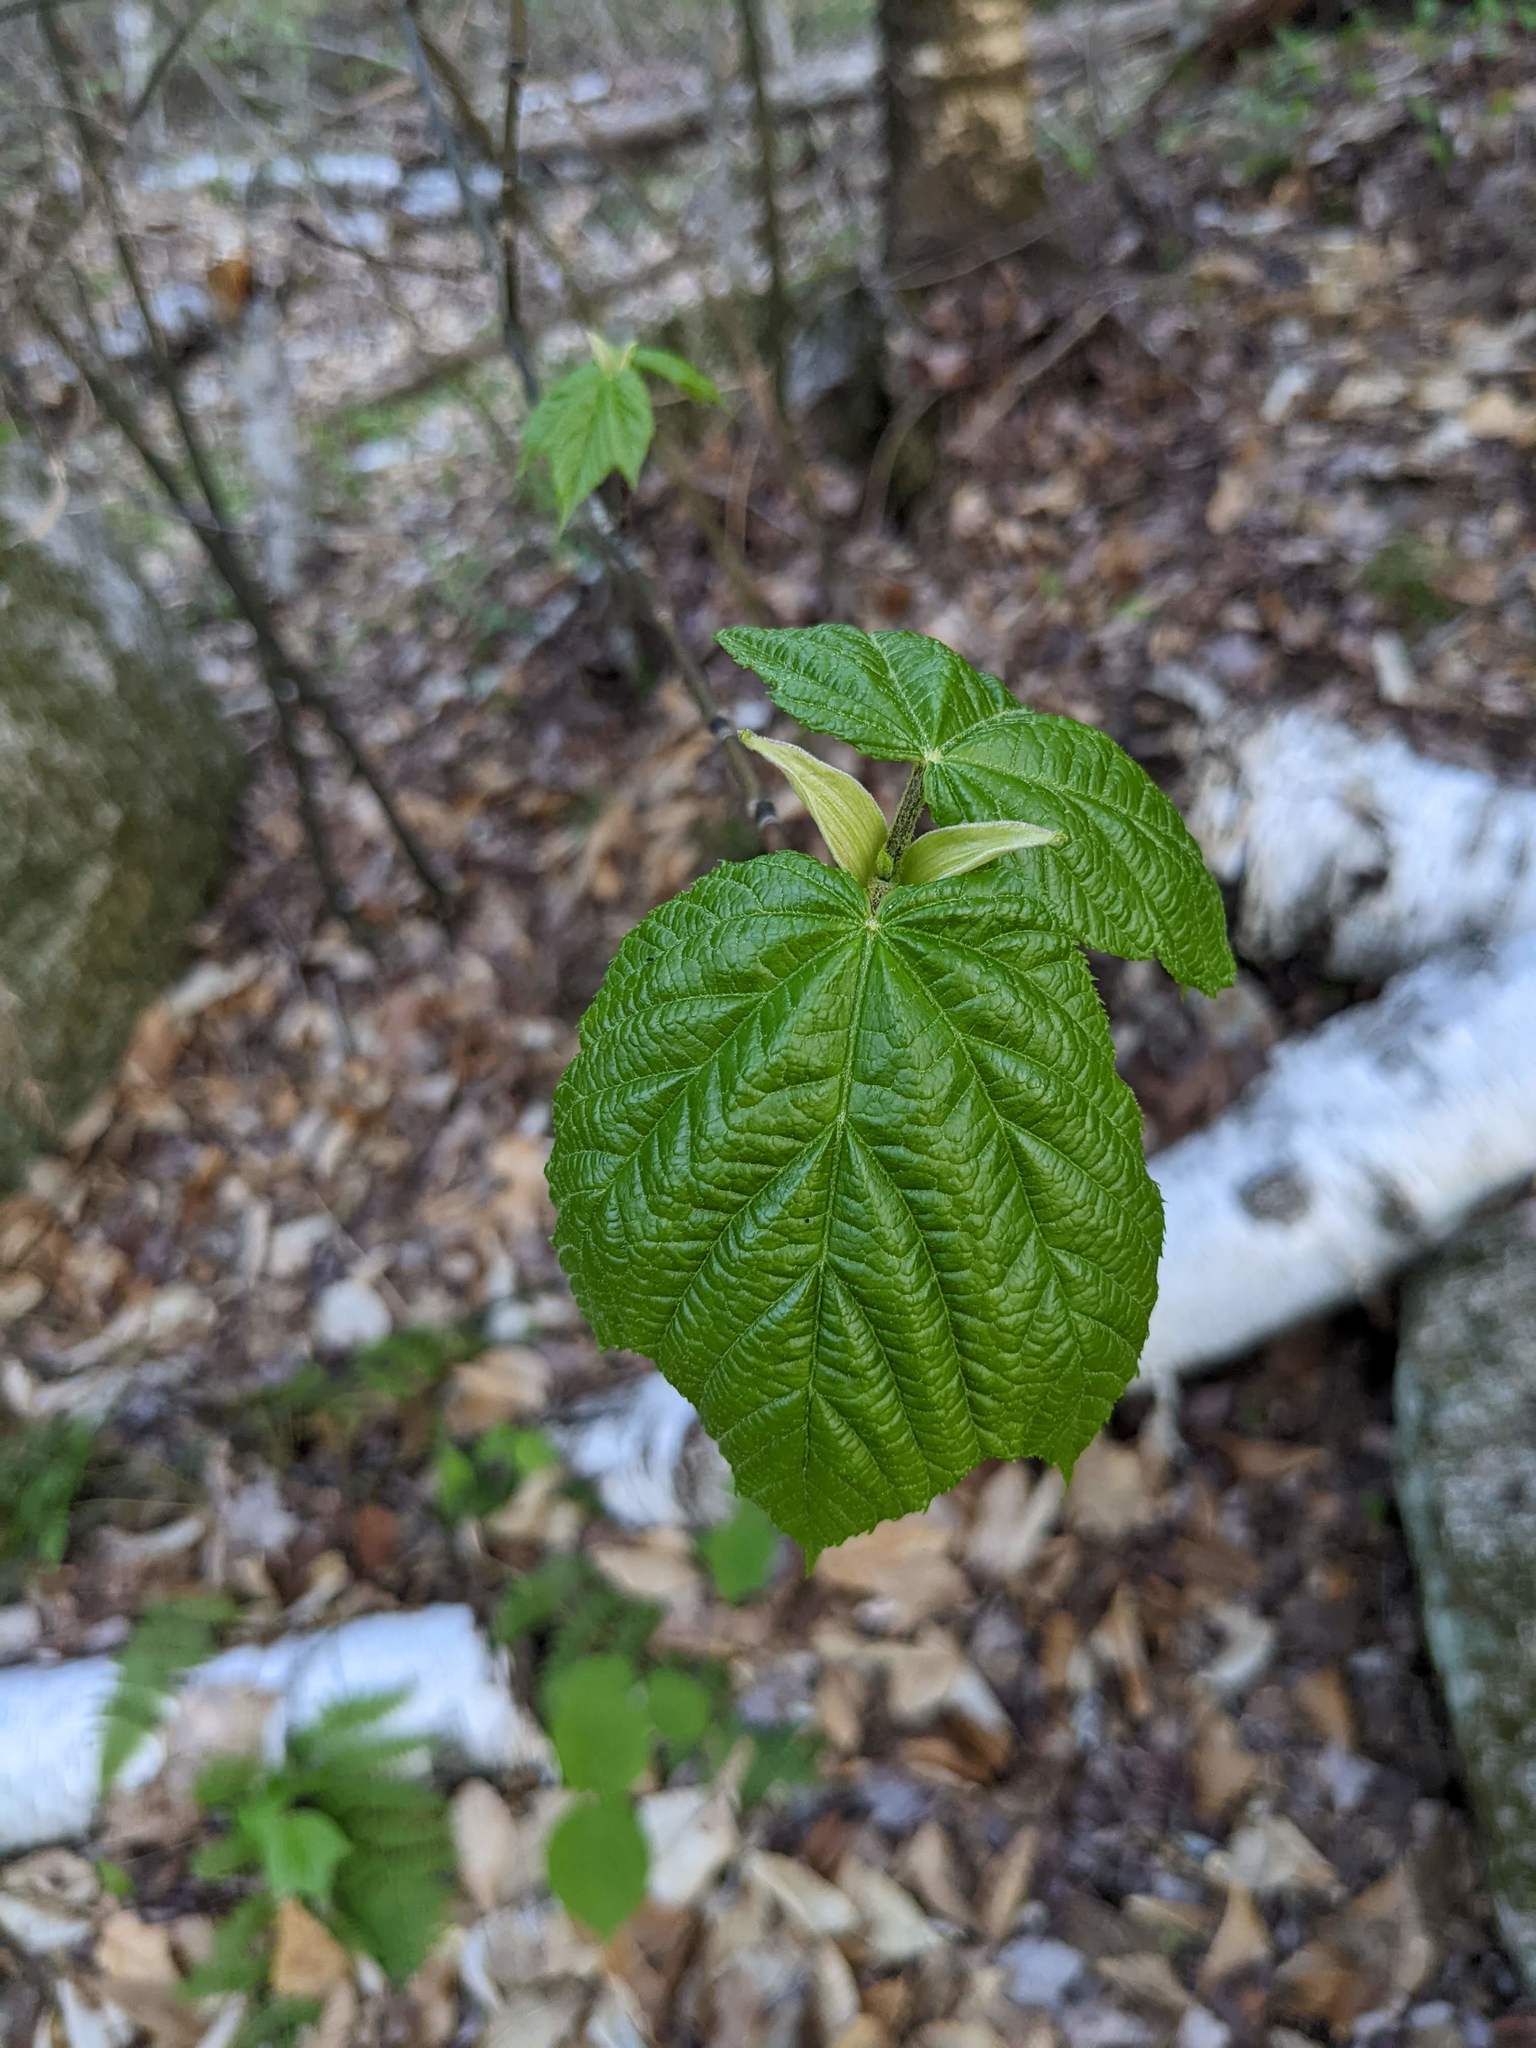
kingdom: Plantae
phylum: Tracheophyta
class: Magnoliopsida
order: Sapindales
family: Sapindaceae
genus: Acer
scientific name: Acer pensylvanicum
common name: Moosewood
